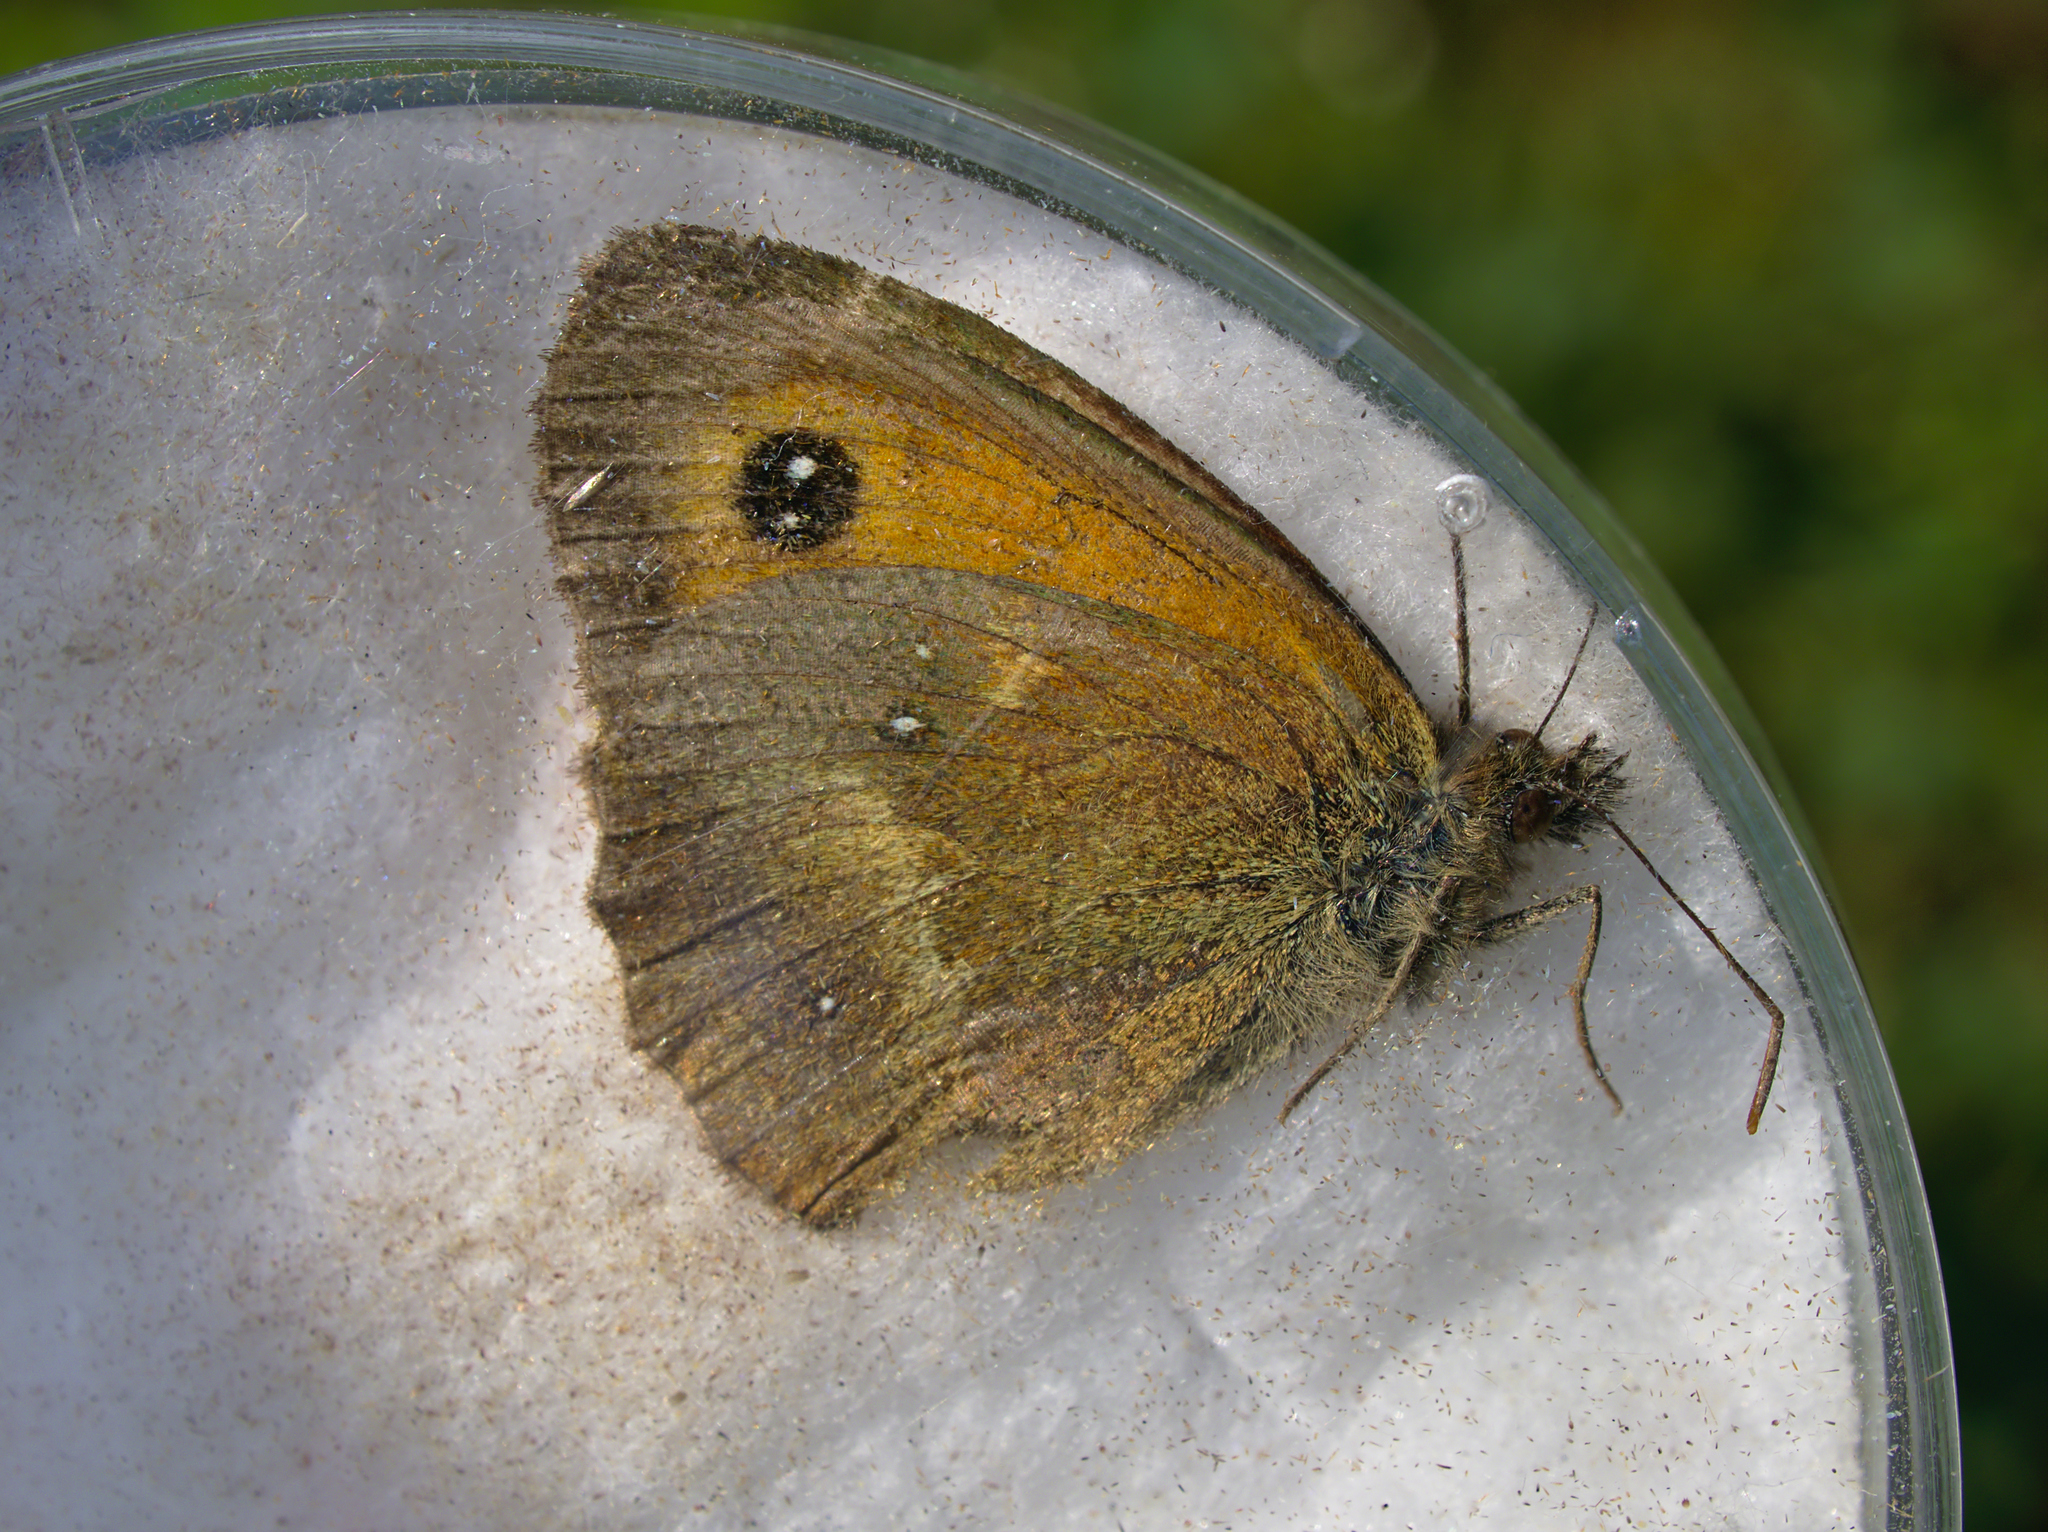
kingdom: Animalia
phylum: Arthropoda
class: Insecta
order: Lepidoptera
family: Nymphalidae
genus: Pyronia
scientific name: Pyronia tithonus
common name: Gatekeeper
